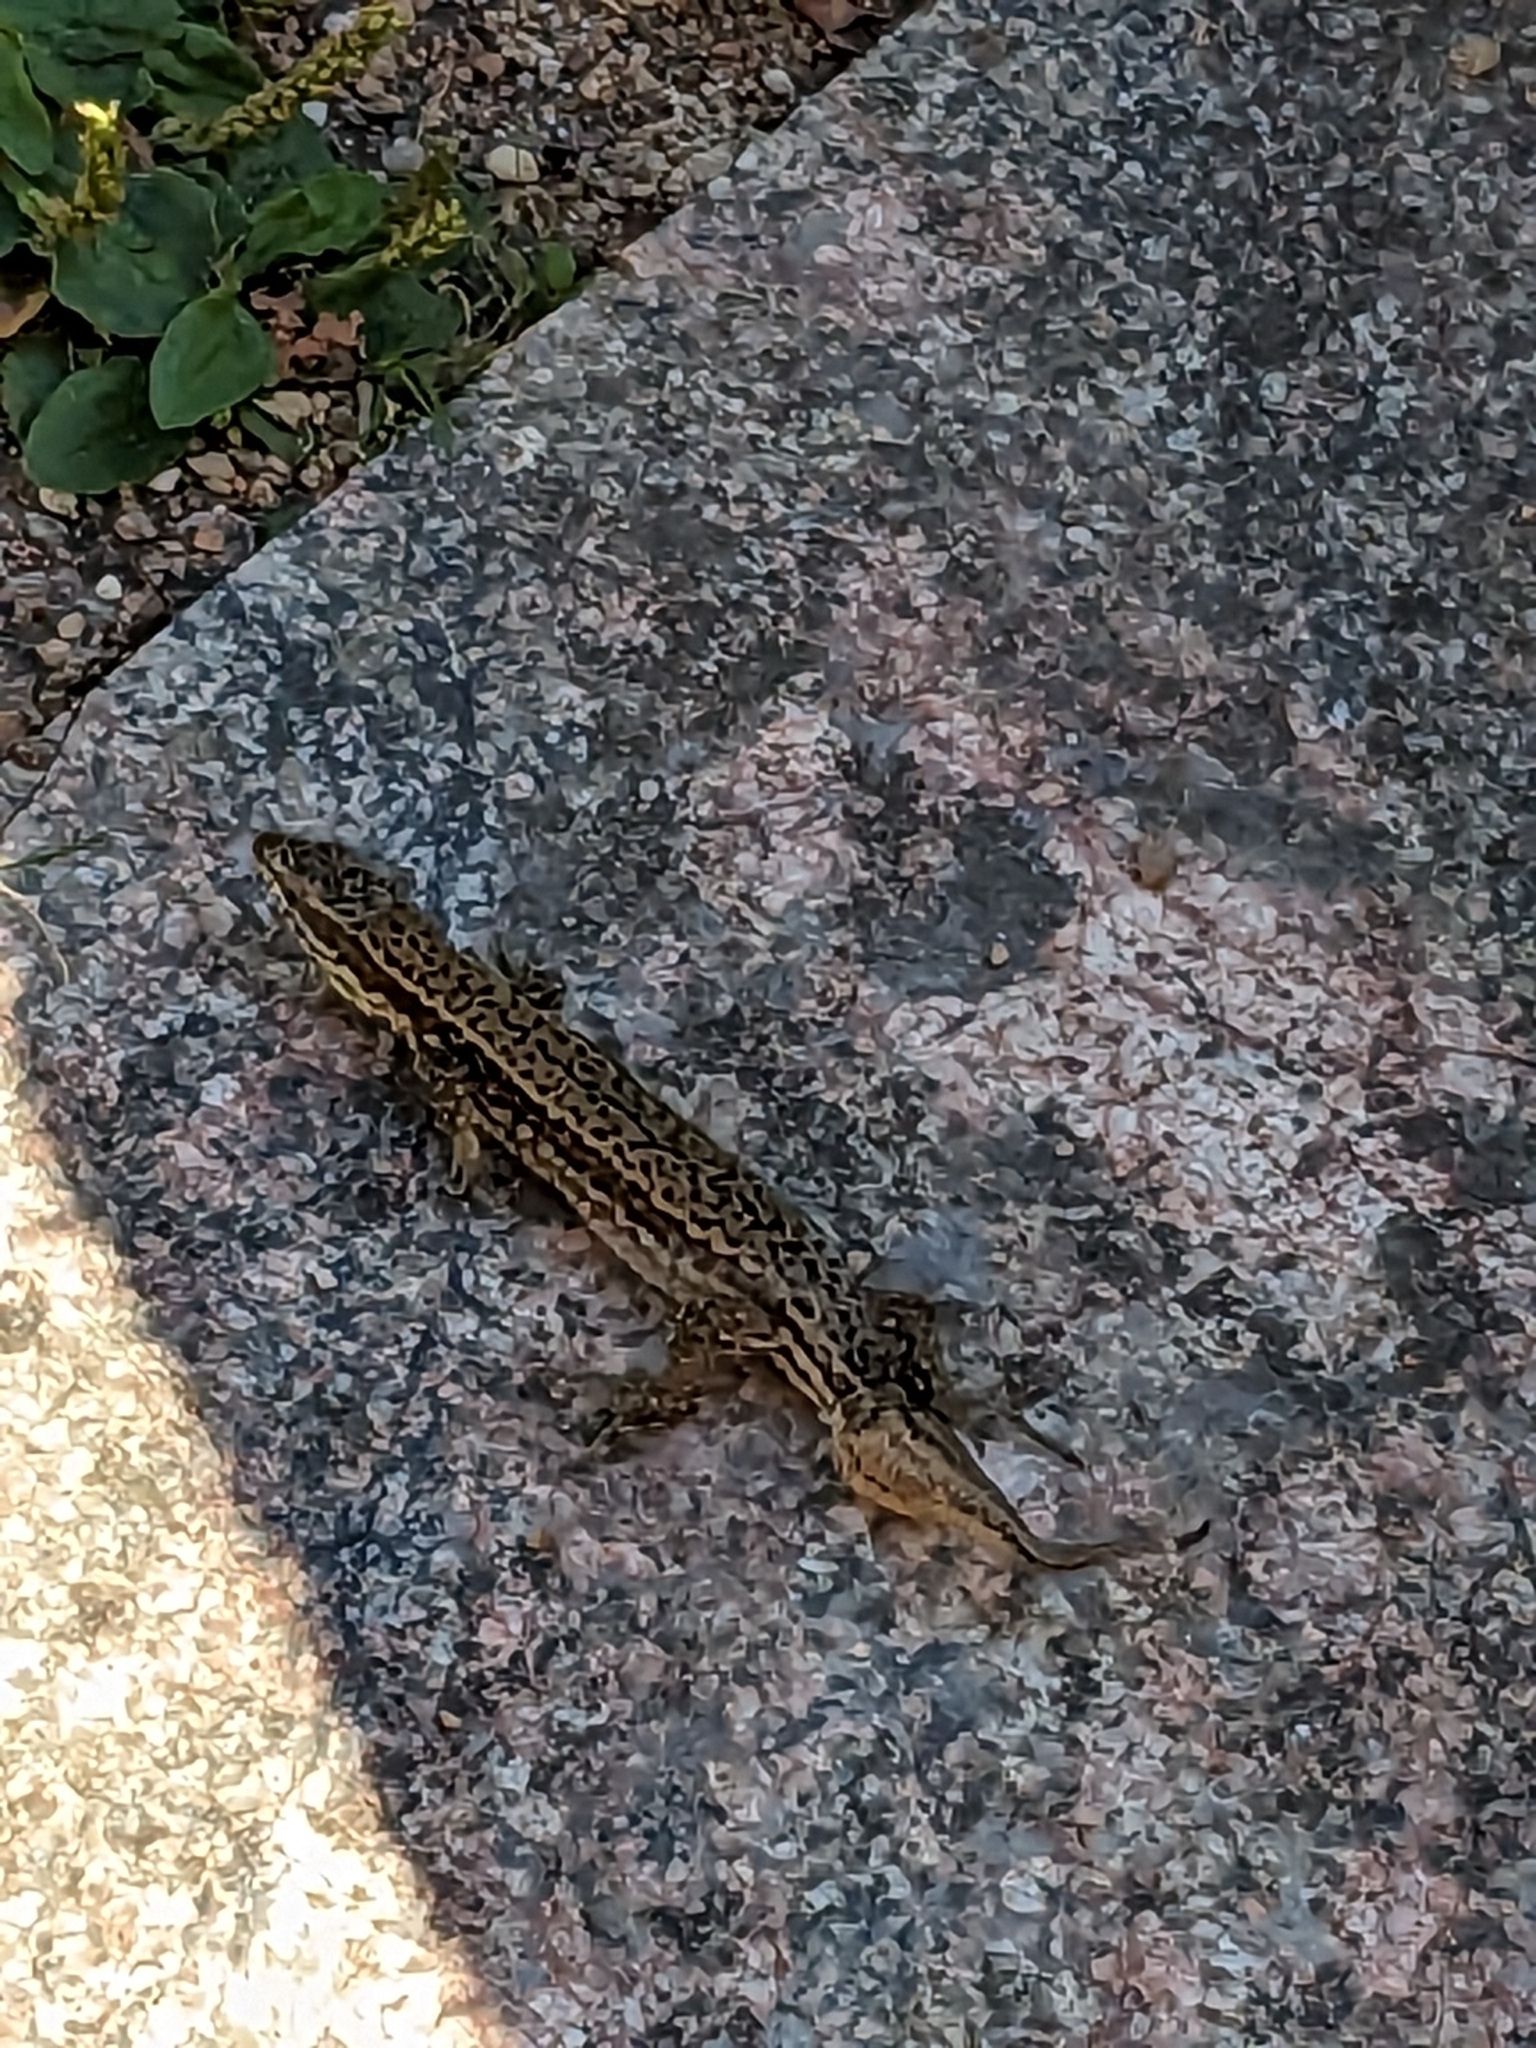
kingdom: Animalia
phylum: Chordata
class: Squamata
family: Lacertidae
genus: Podarcis
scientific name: Podarcis muralis
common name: Common wall lizard
